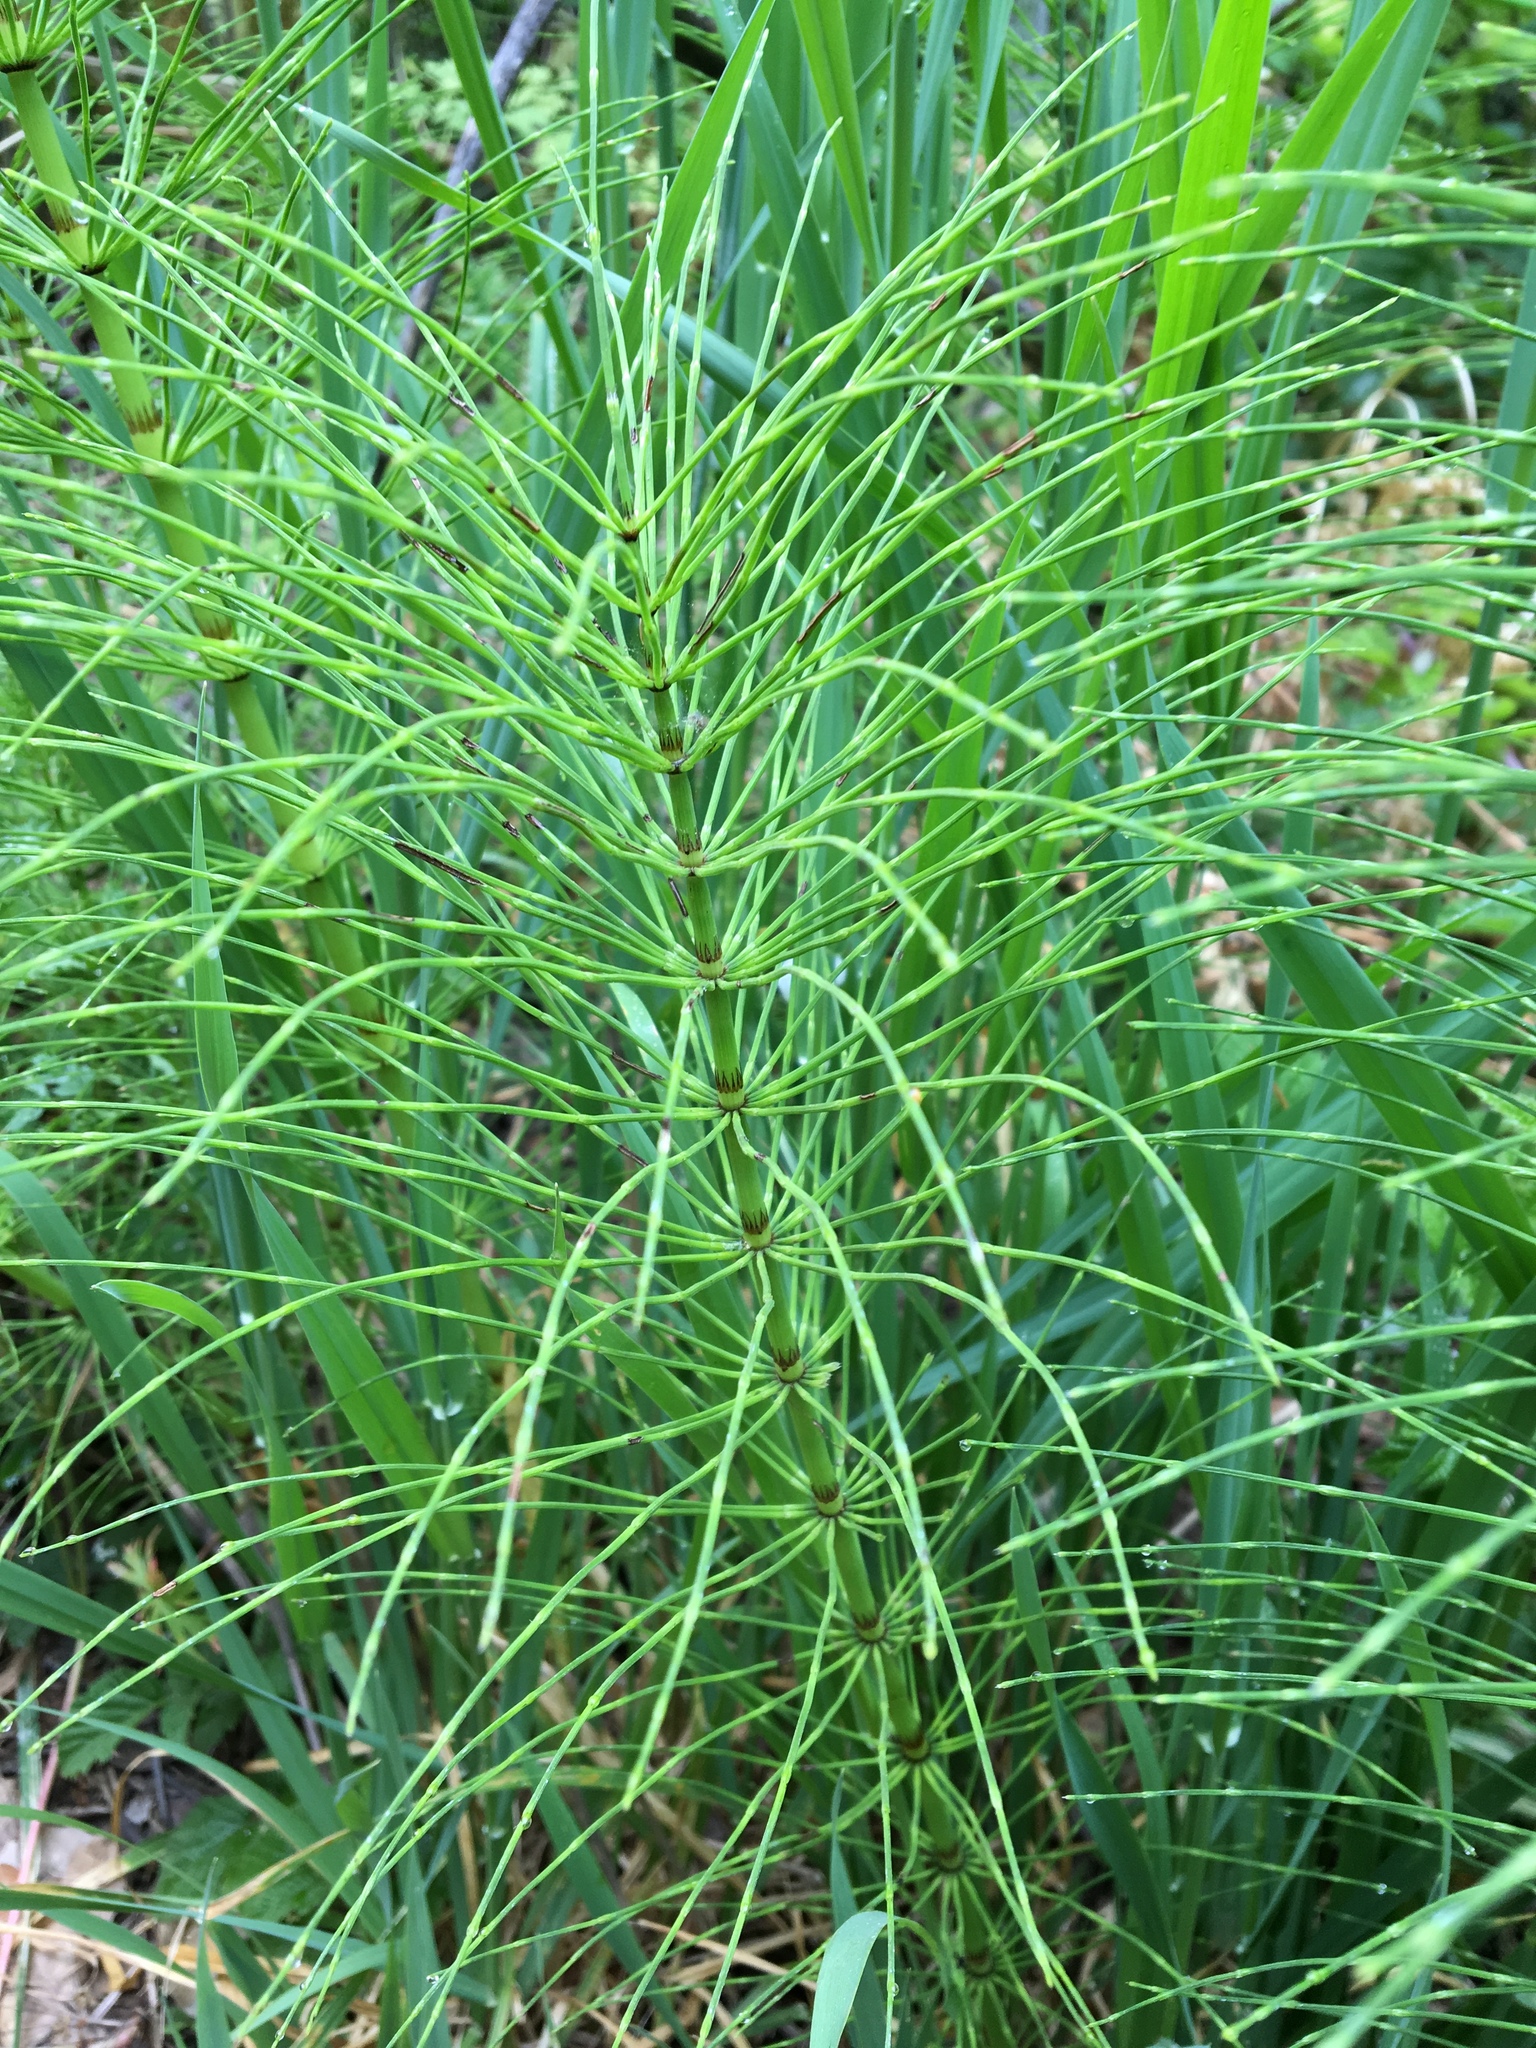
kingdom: Plantae
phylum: Tracheophyta
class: Polypodiopsida
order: Equisetales
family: Equisetaceae
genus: Equisetum
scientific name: Equisetum telmateia
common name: Great horsetail
